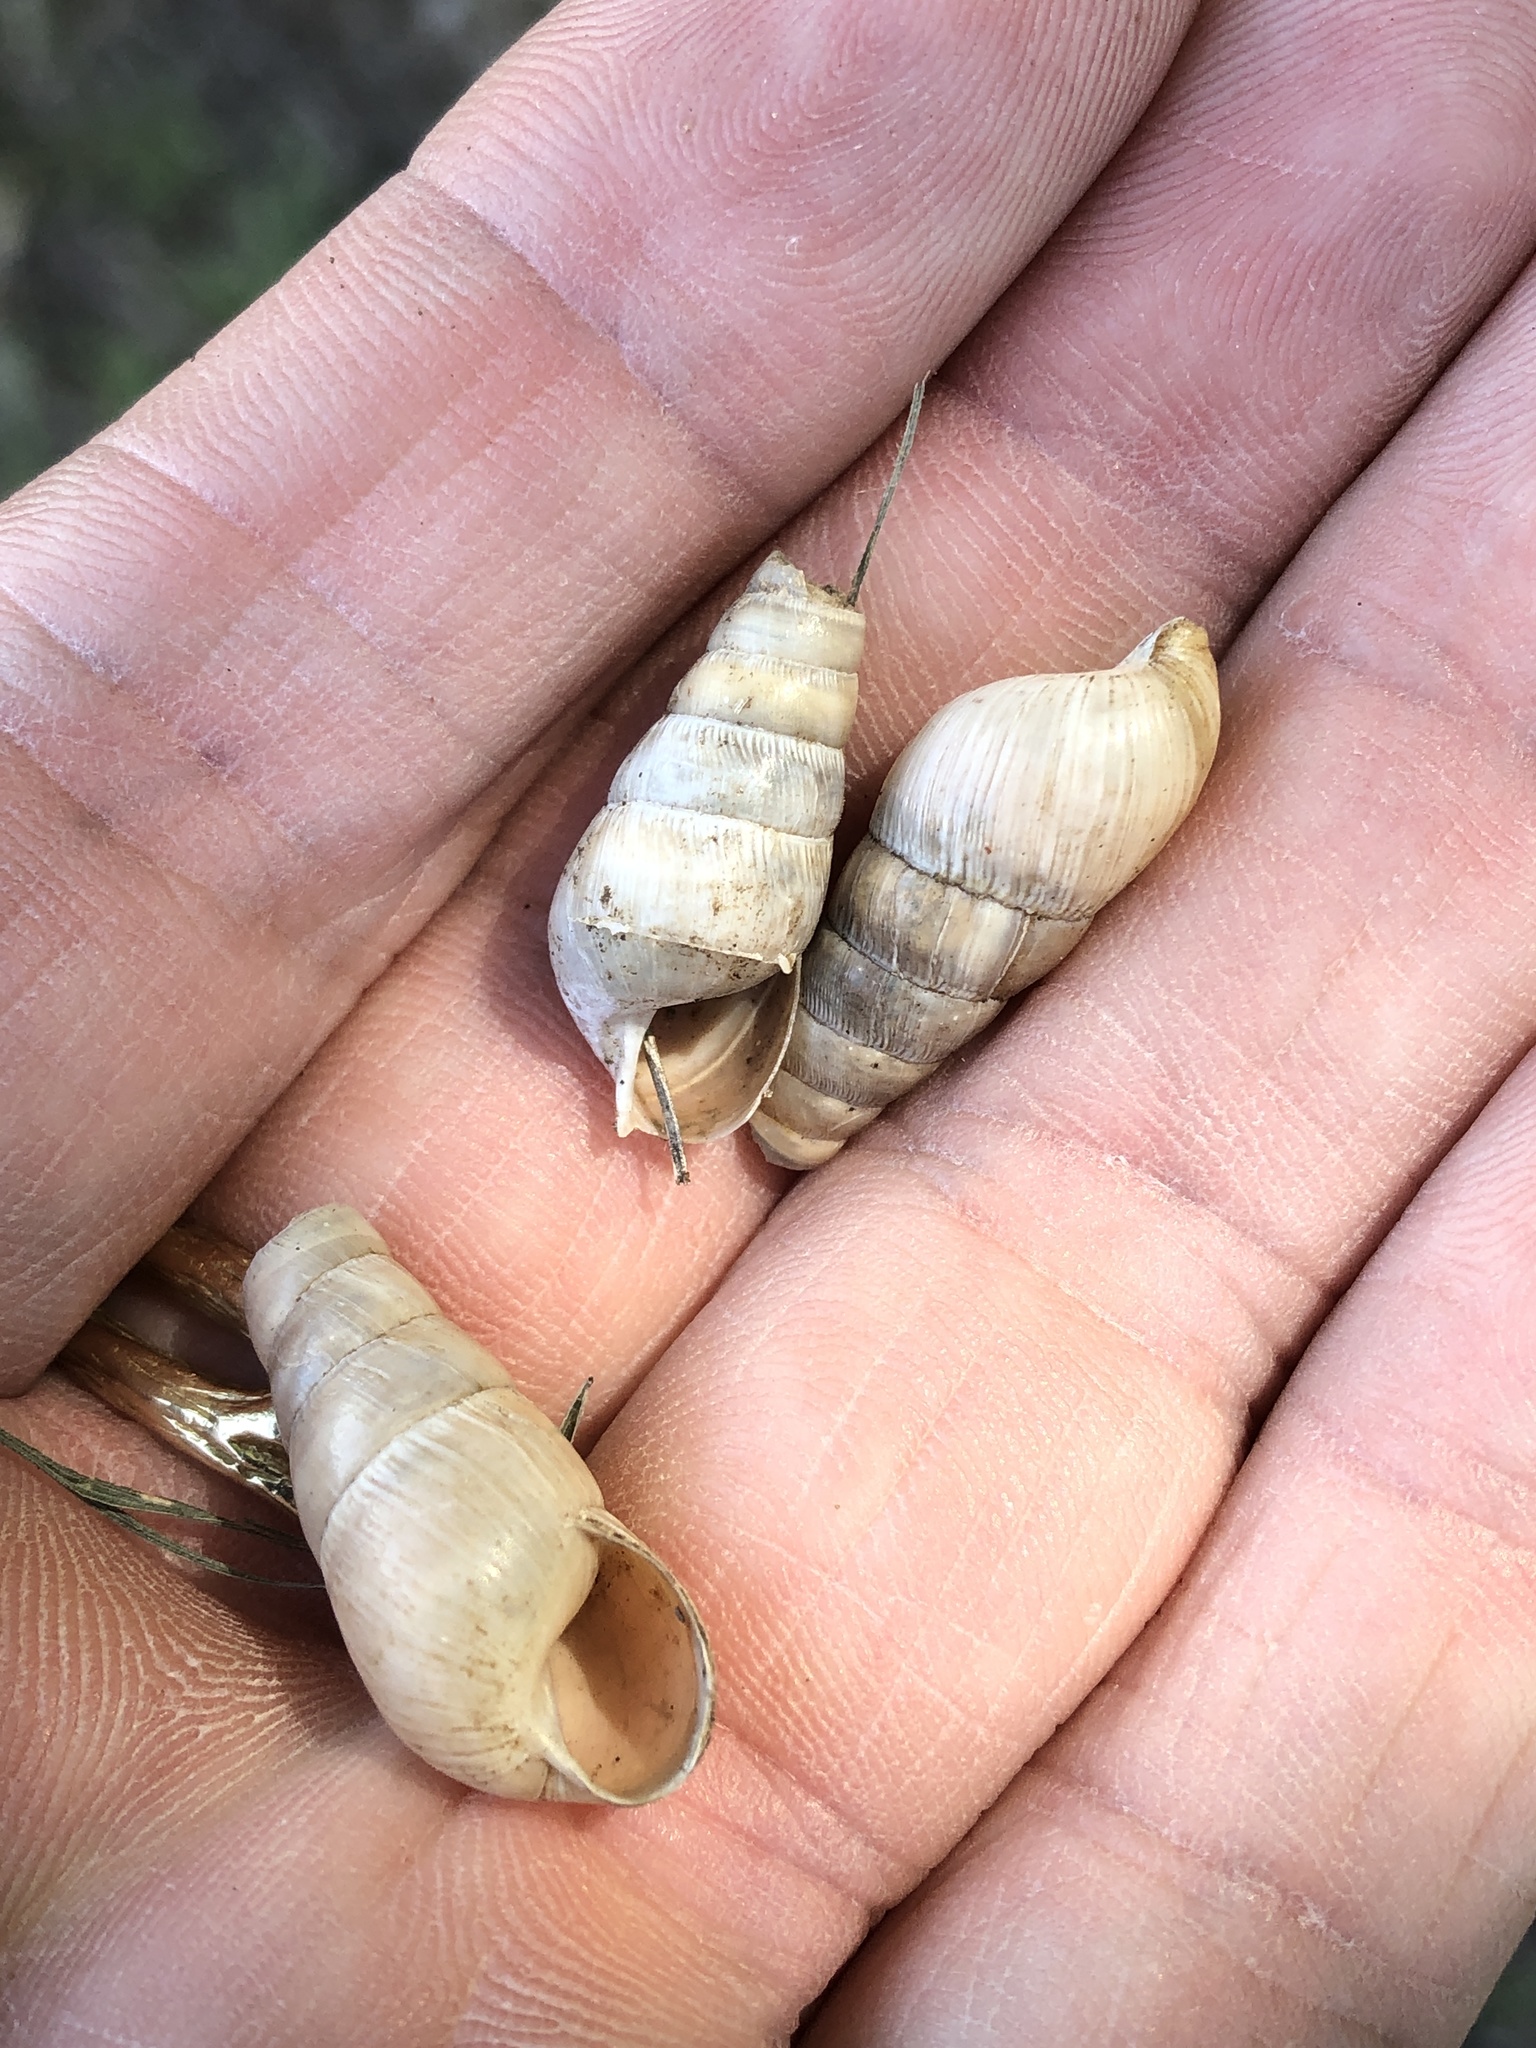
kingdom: Animalia
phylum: Mollusca
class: Gastropoda
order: Stylommatophora
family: Achatinidae
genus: Rumina
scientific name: Rumina decollata
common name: Decollate snail
